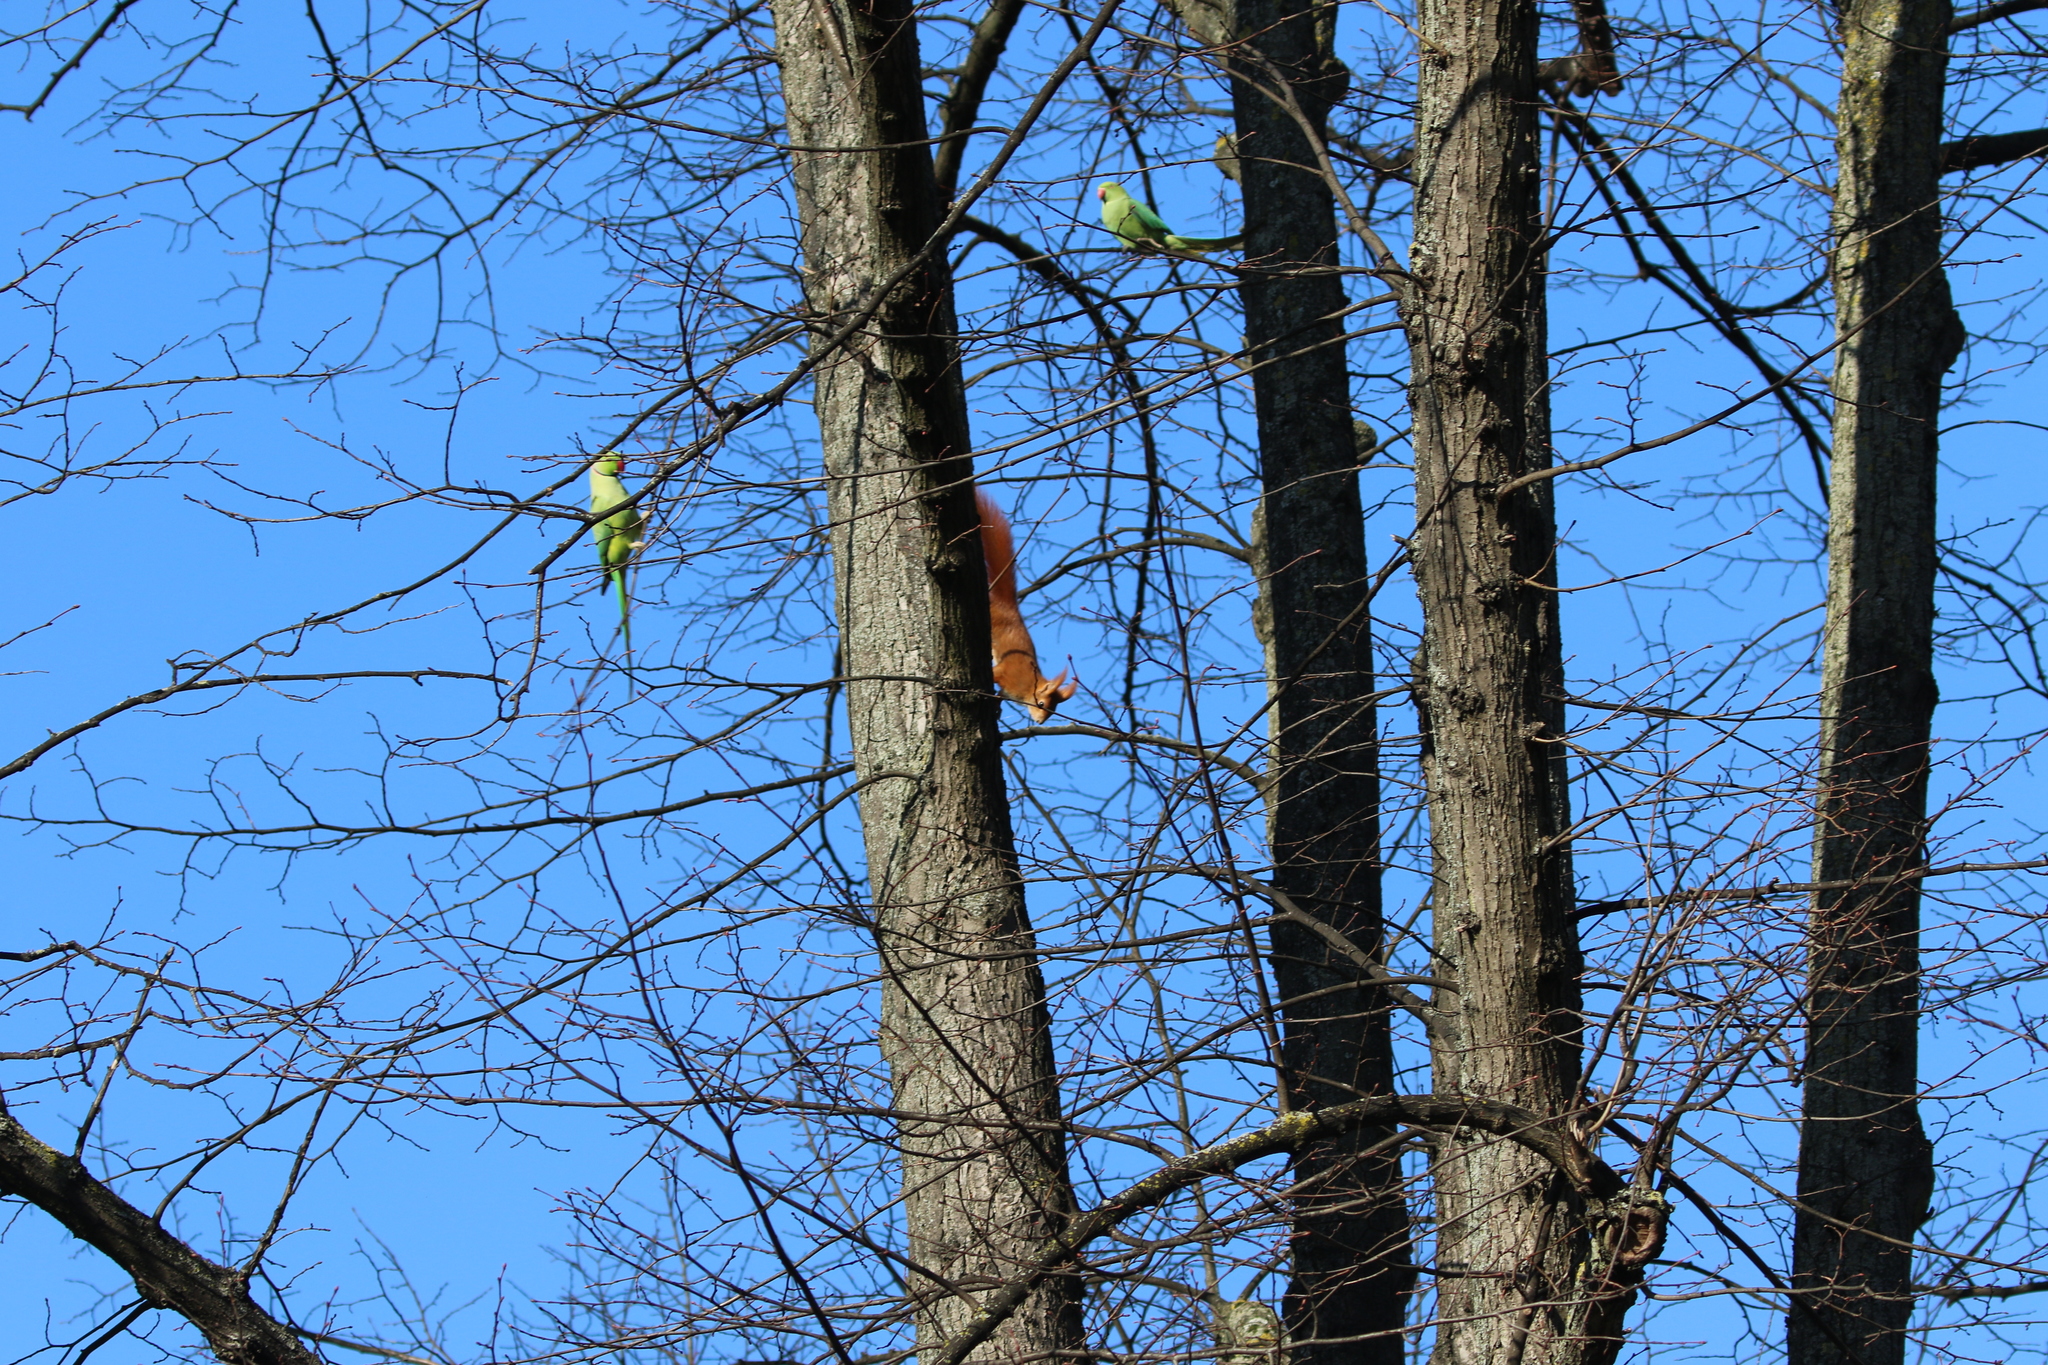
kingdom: Animalia
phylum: Chordata
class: Aves
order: Psittaciformes
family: Psittacidae
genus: Psittacula
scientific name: Psittacula krameri
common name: Rose-ringed parakeet
